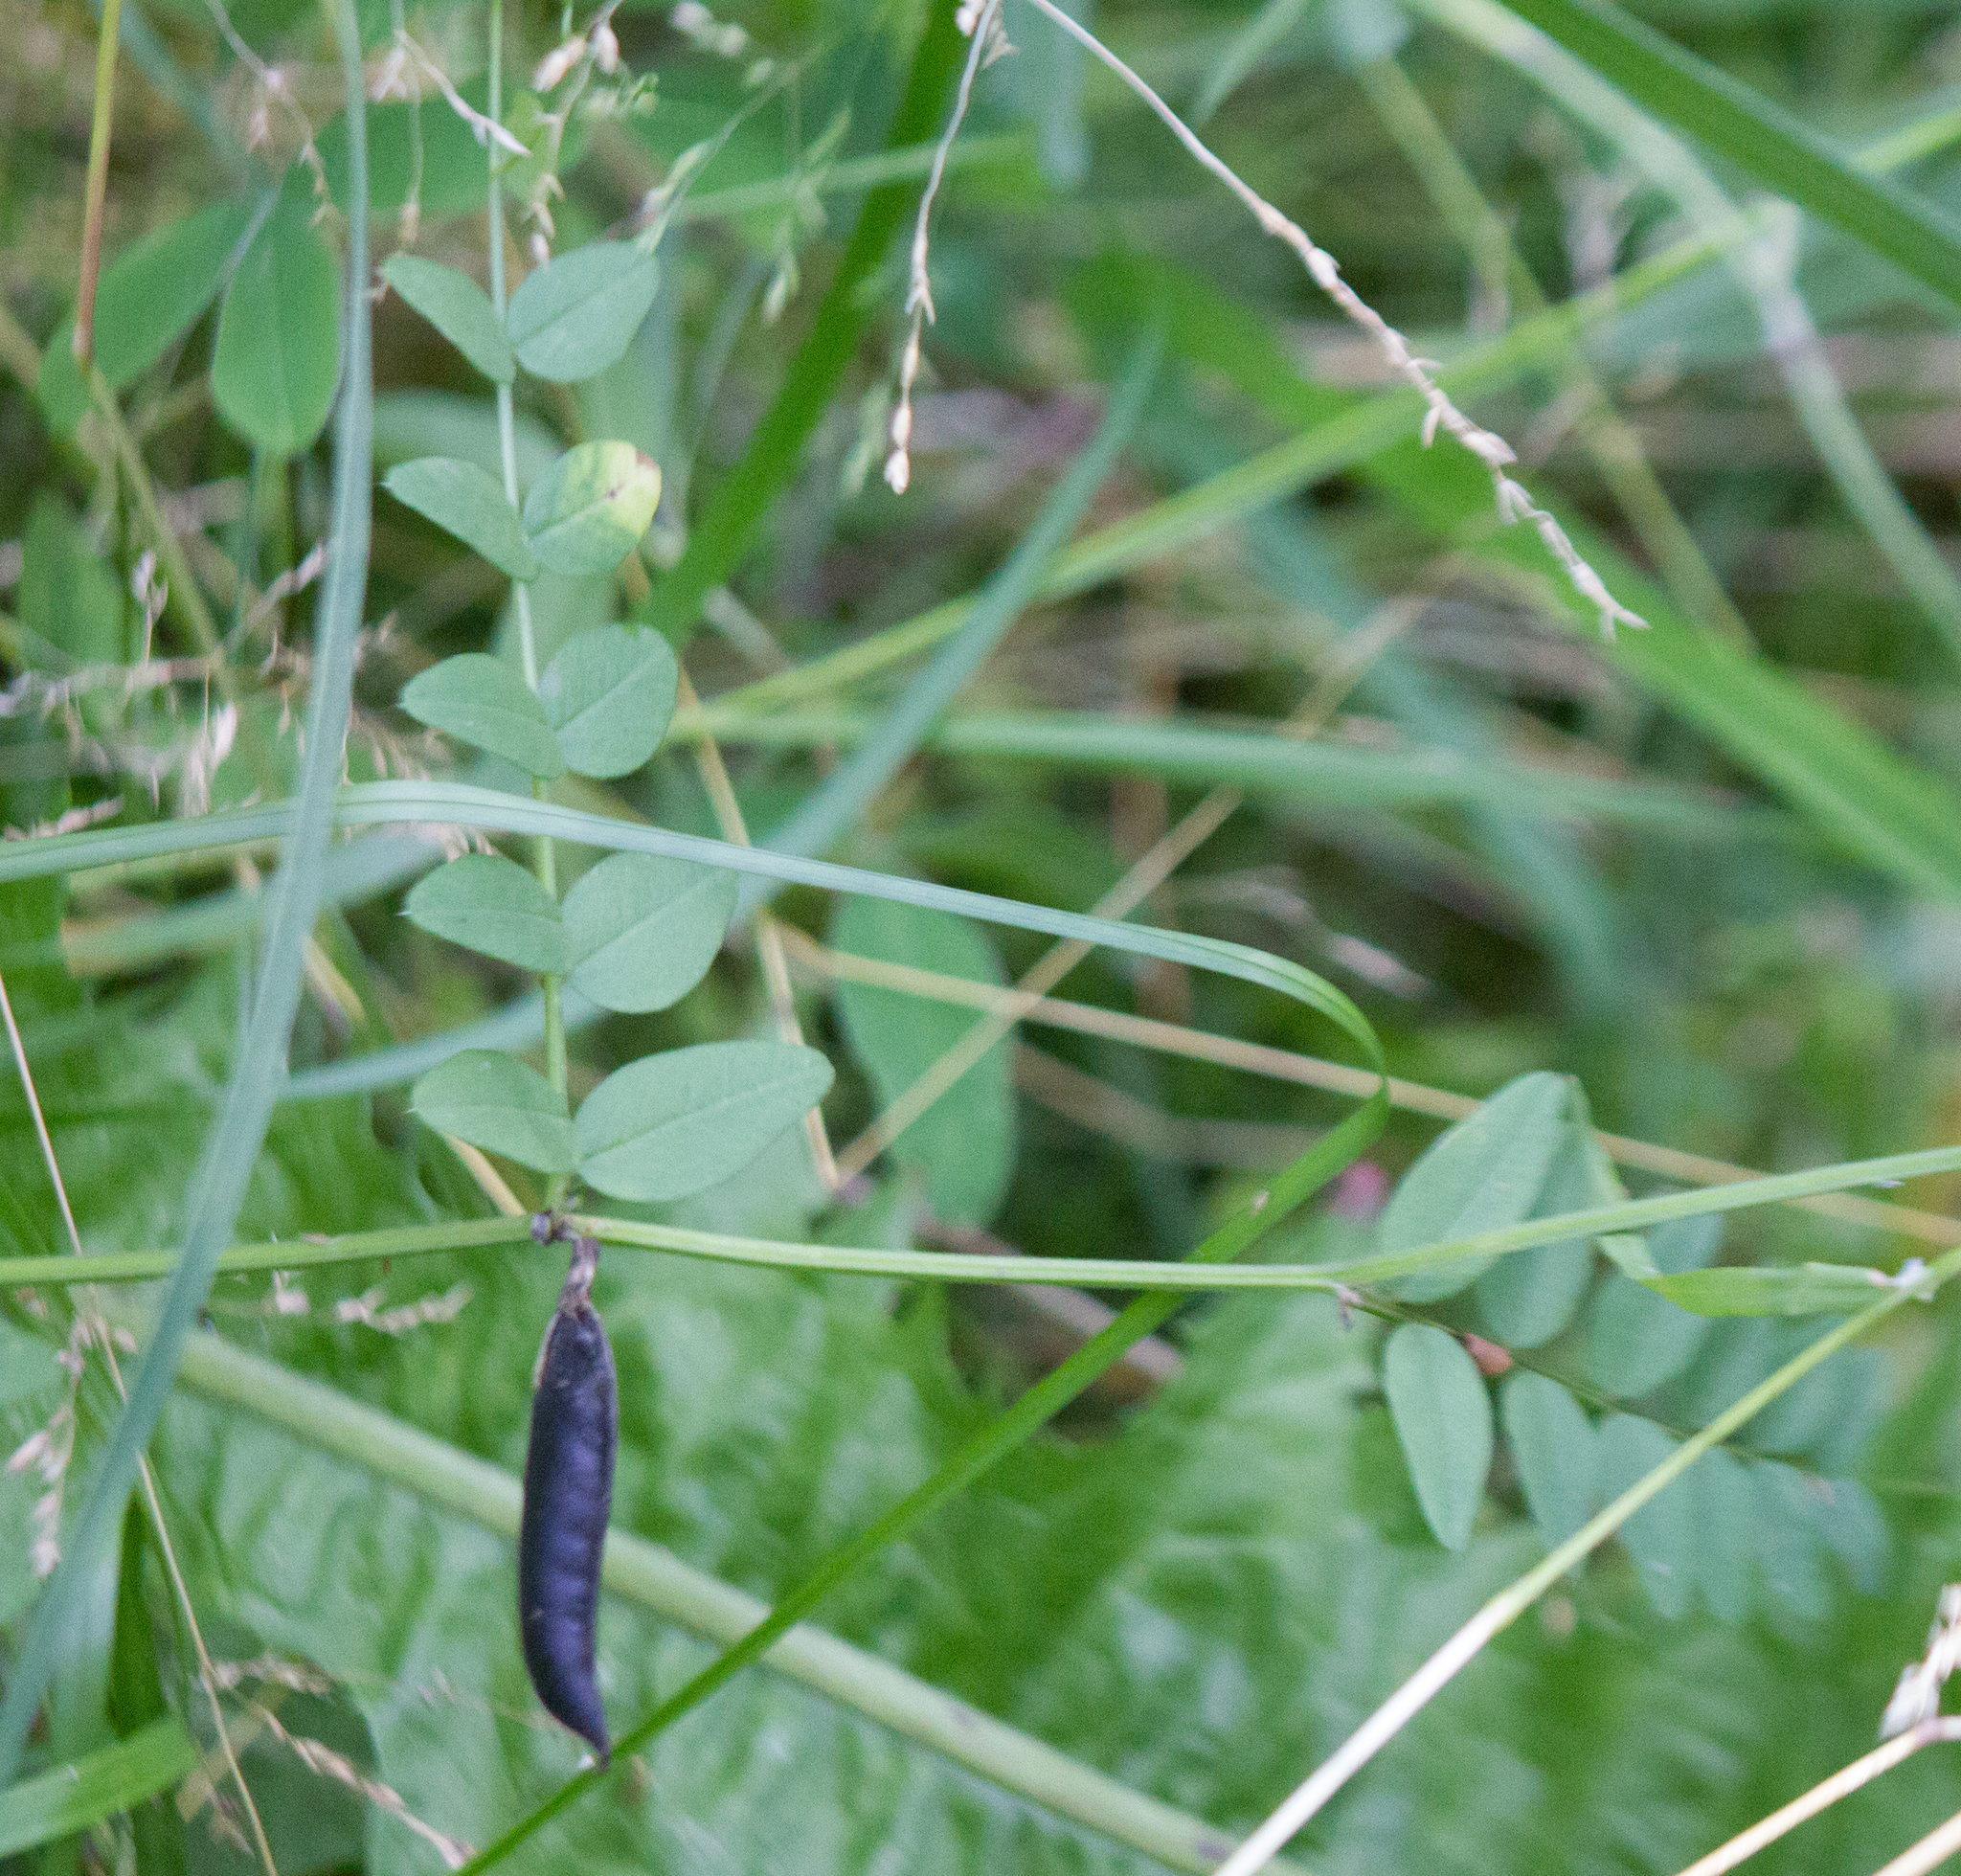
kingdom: Plantae
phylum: Tracheophyta
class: Magnoliopsida
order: Fabales
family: Fabaceae
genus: Vicia
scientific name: Vicia sepium
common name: Bush vetch
